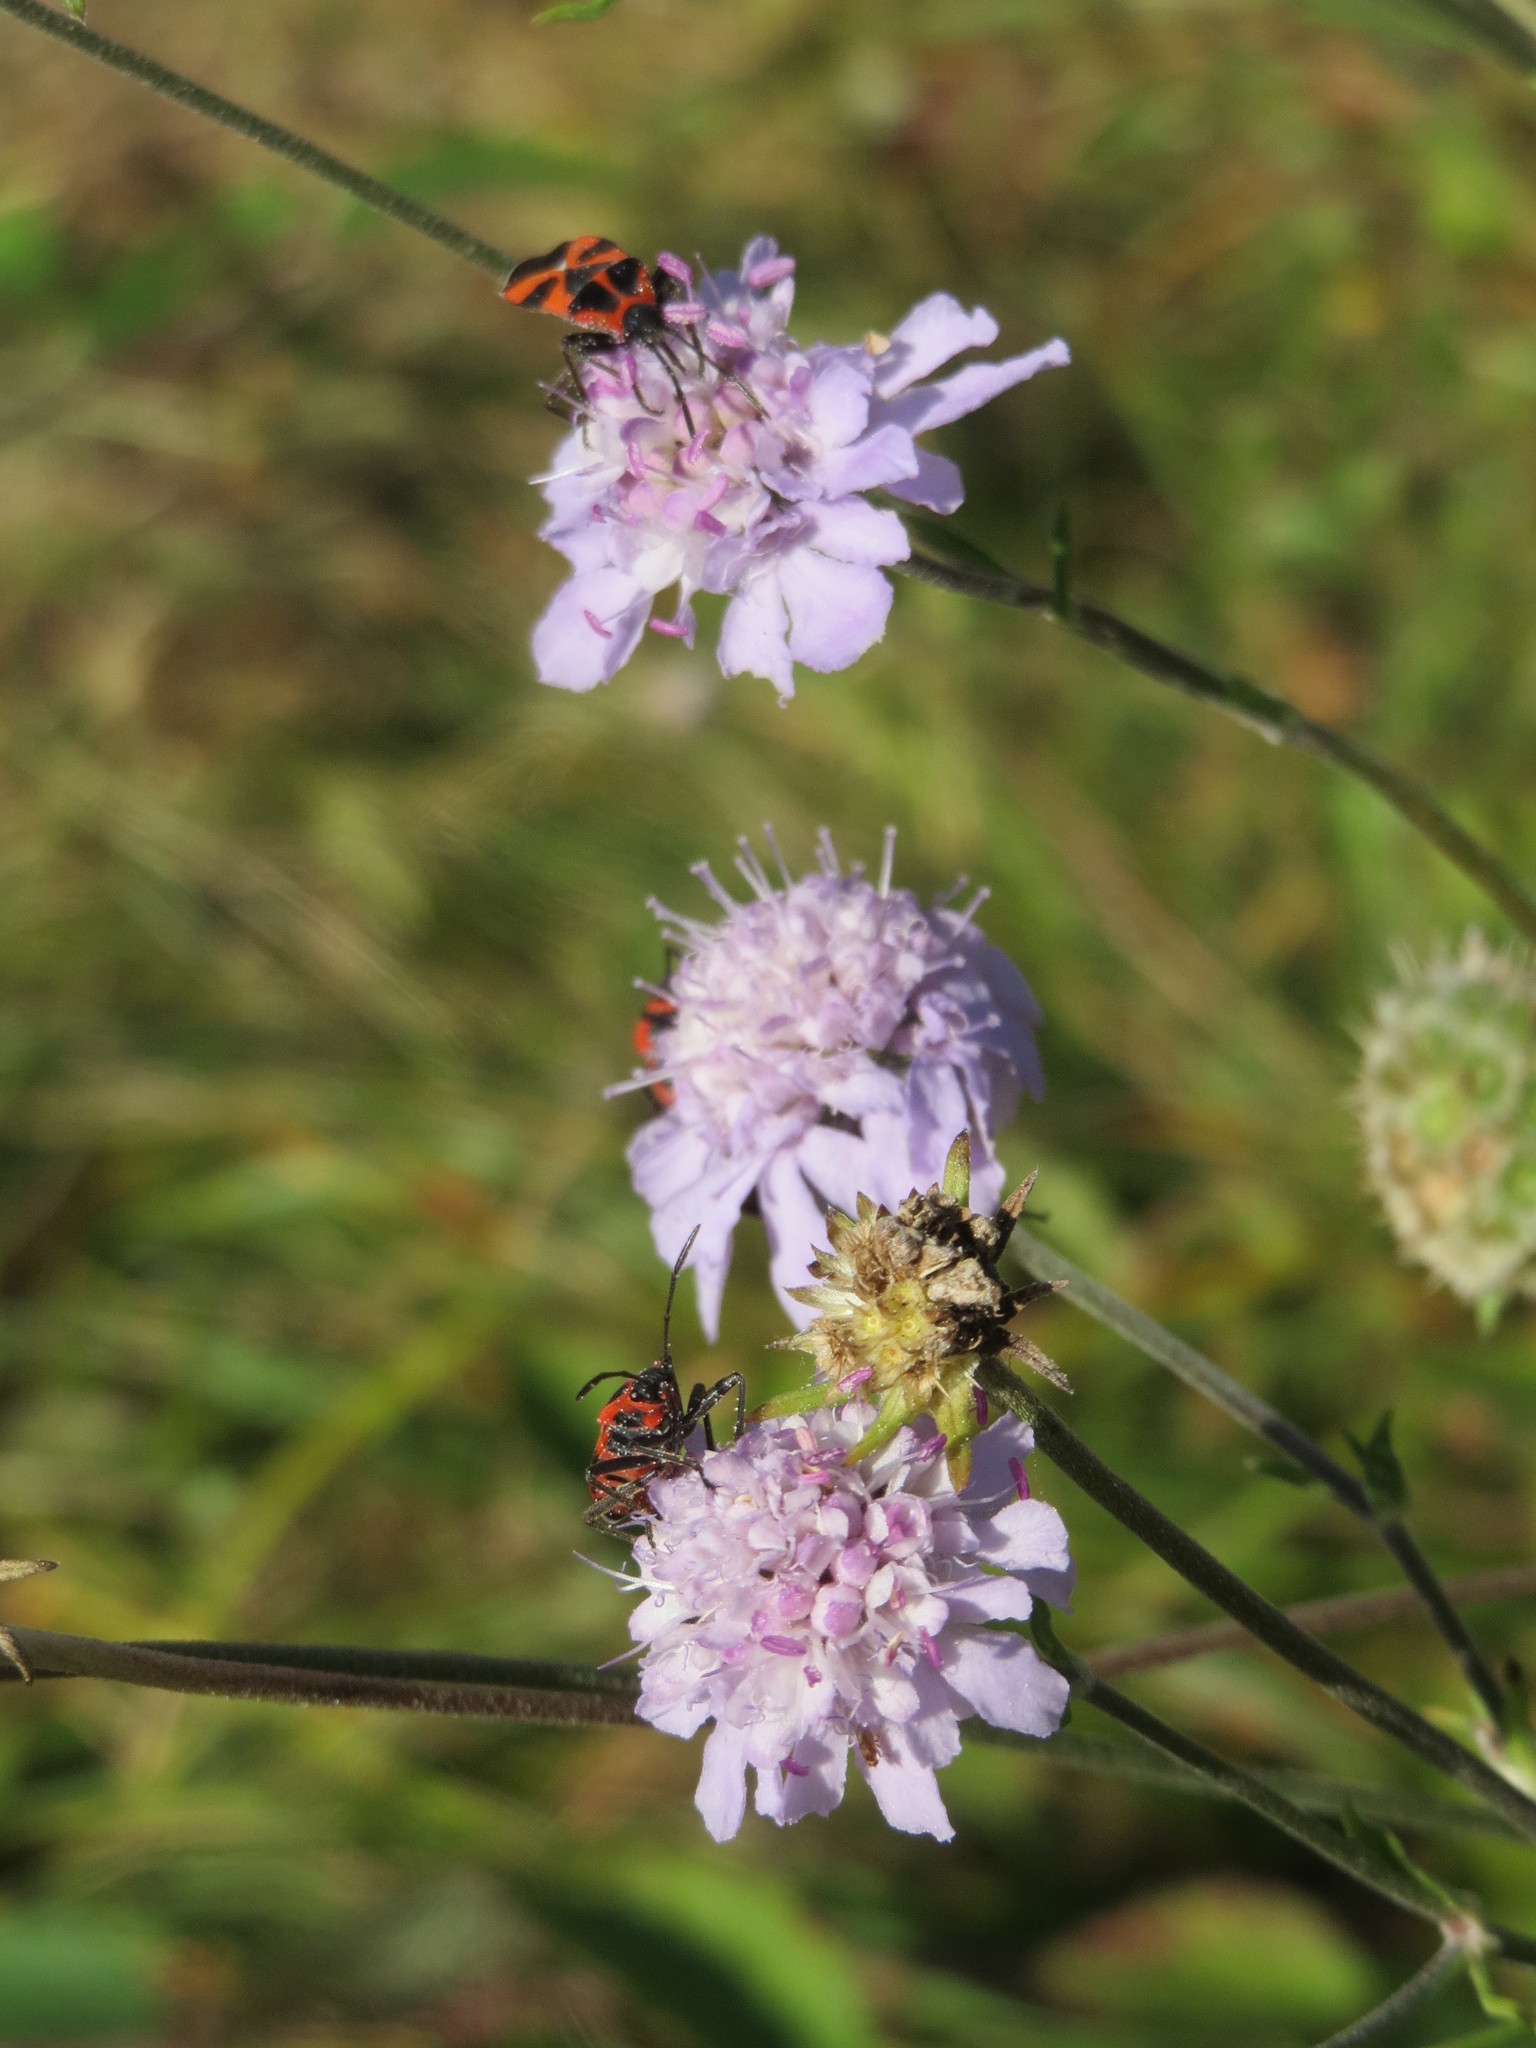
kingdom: Plantae
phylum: Tracheophyta
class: Magnoliopsida
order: Dipsacales
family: Caprifoliaceae
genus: Scabiosa
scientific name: Scabiosa canescens
